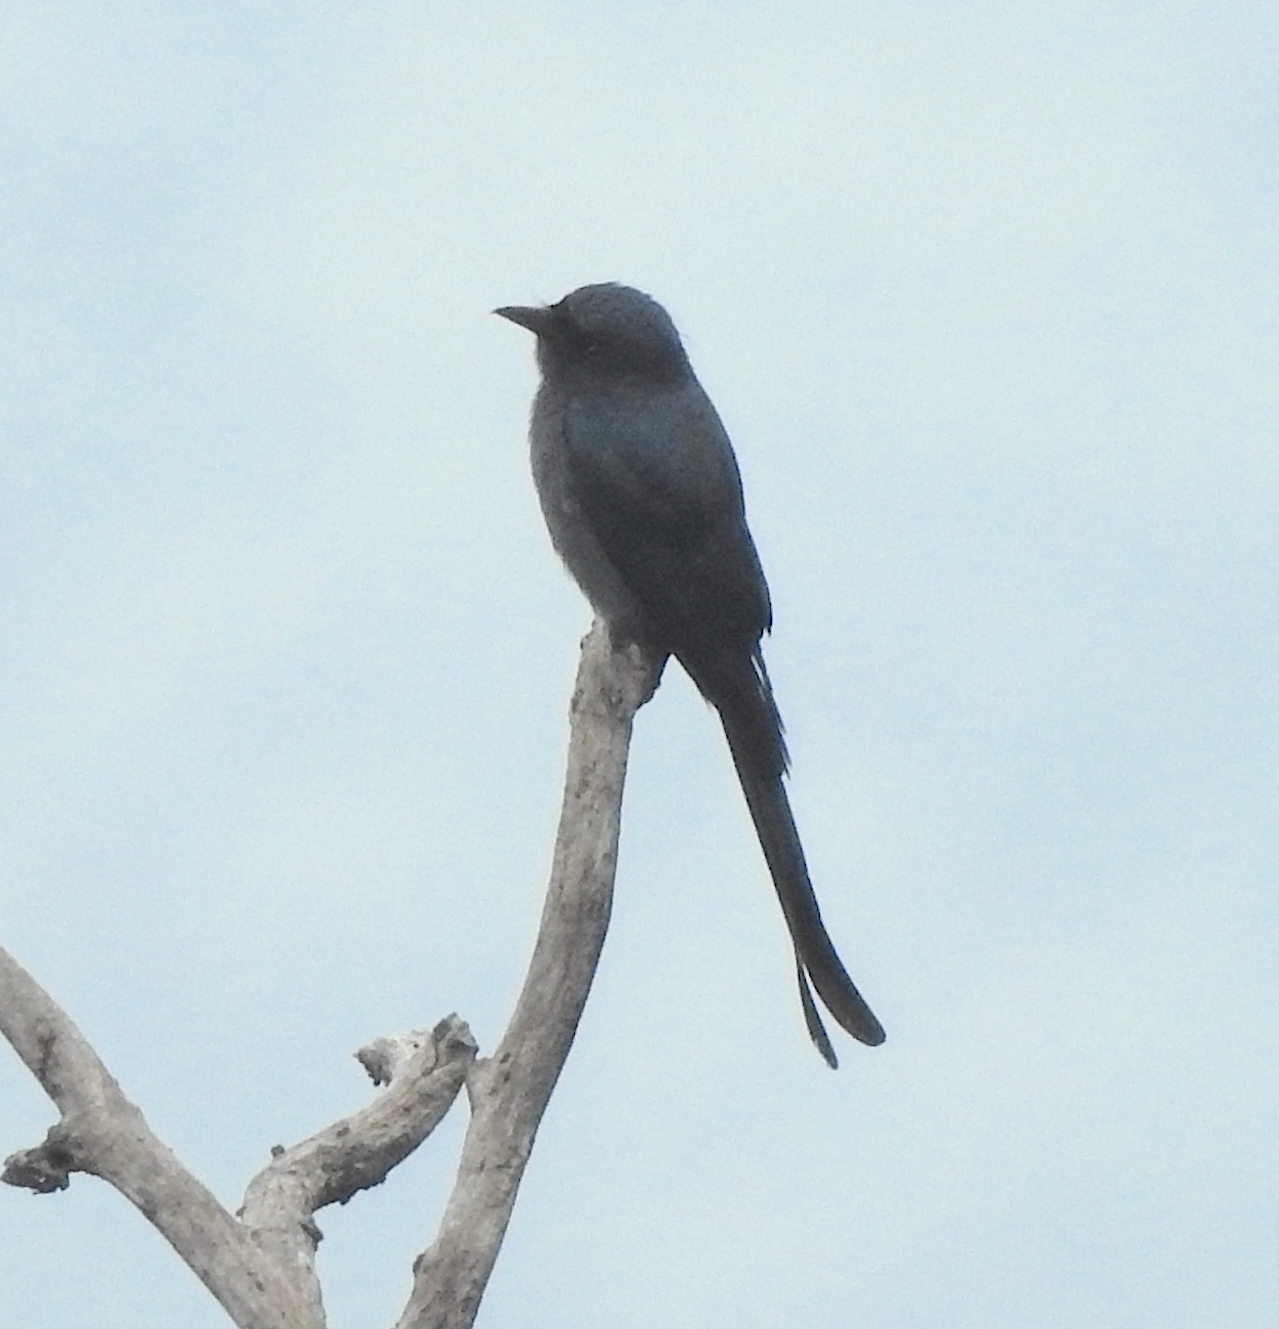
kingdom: Animalia
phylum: Chordata
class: Aves
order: Passeriformes
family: Dicruridae
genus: Dicrurus
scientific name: Dicrurus leucophaeus
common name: Ashy drongo
